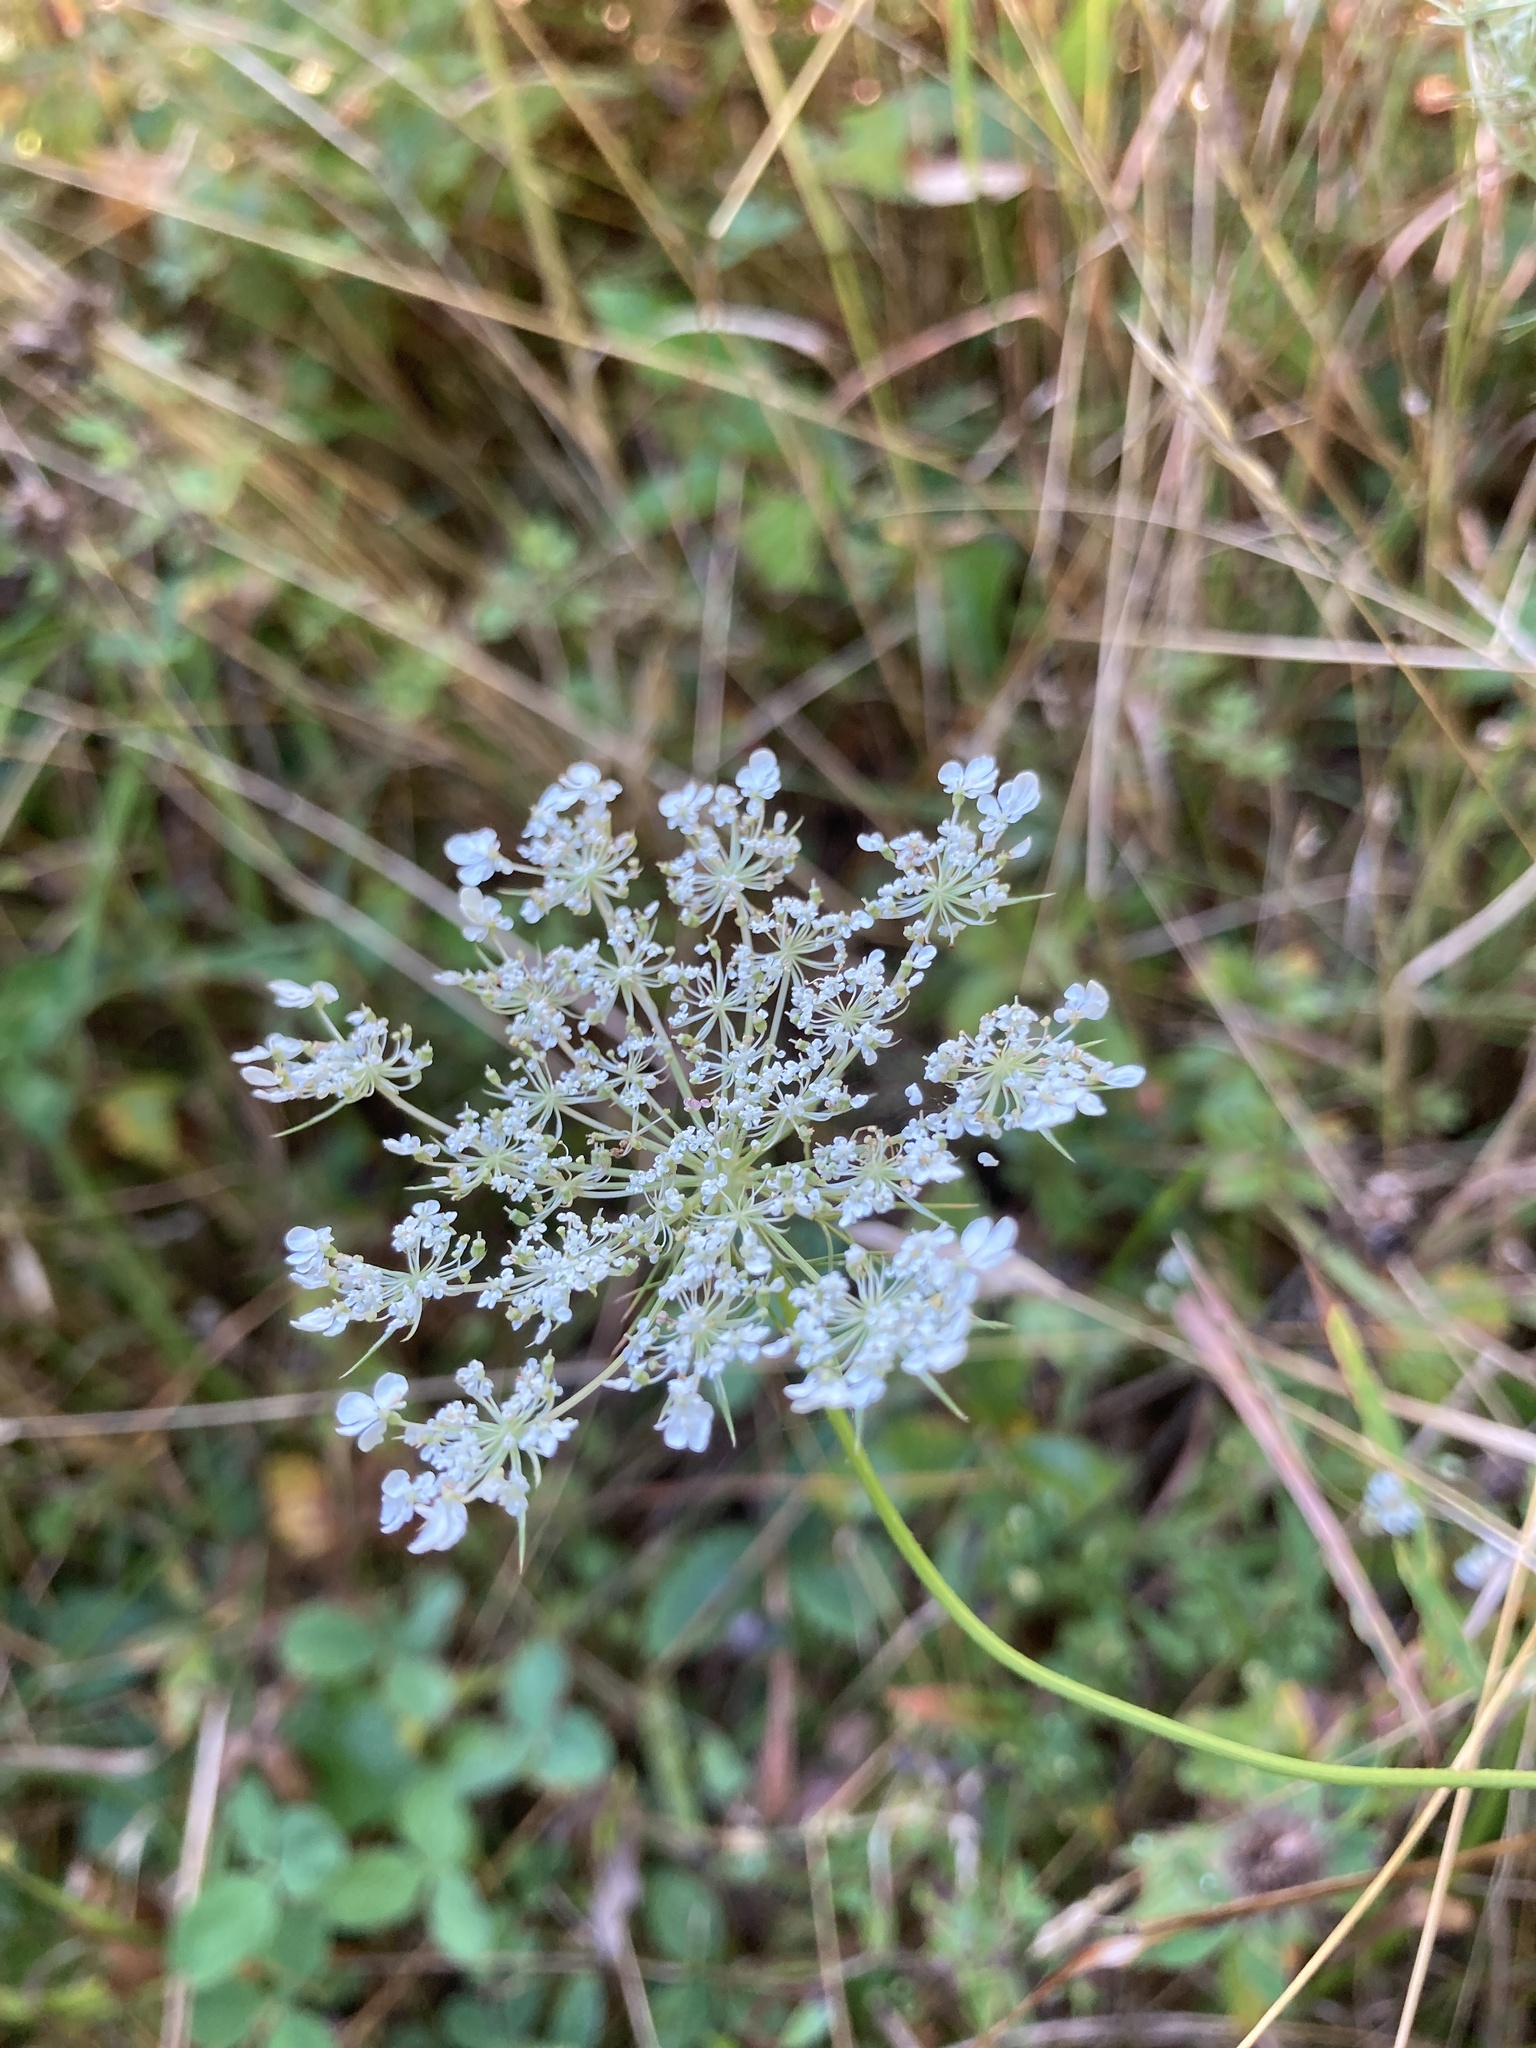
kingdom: Plantae
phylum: Tracheophyta
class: Magnoliopsida
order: Apiales
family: Apiaceae
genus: Daucus
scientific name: Daucus carota
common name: Wild carrot
